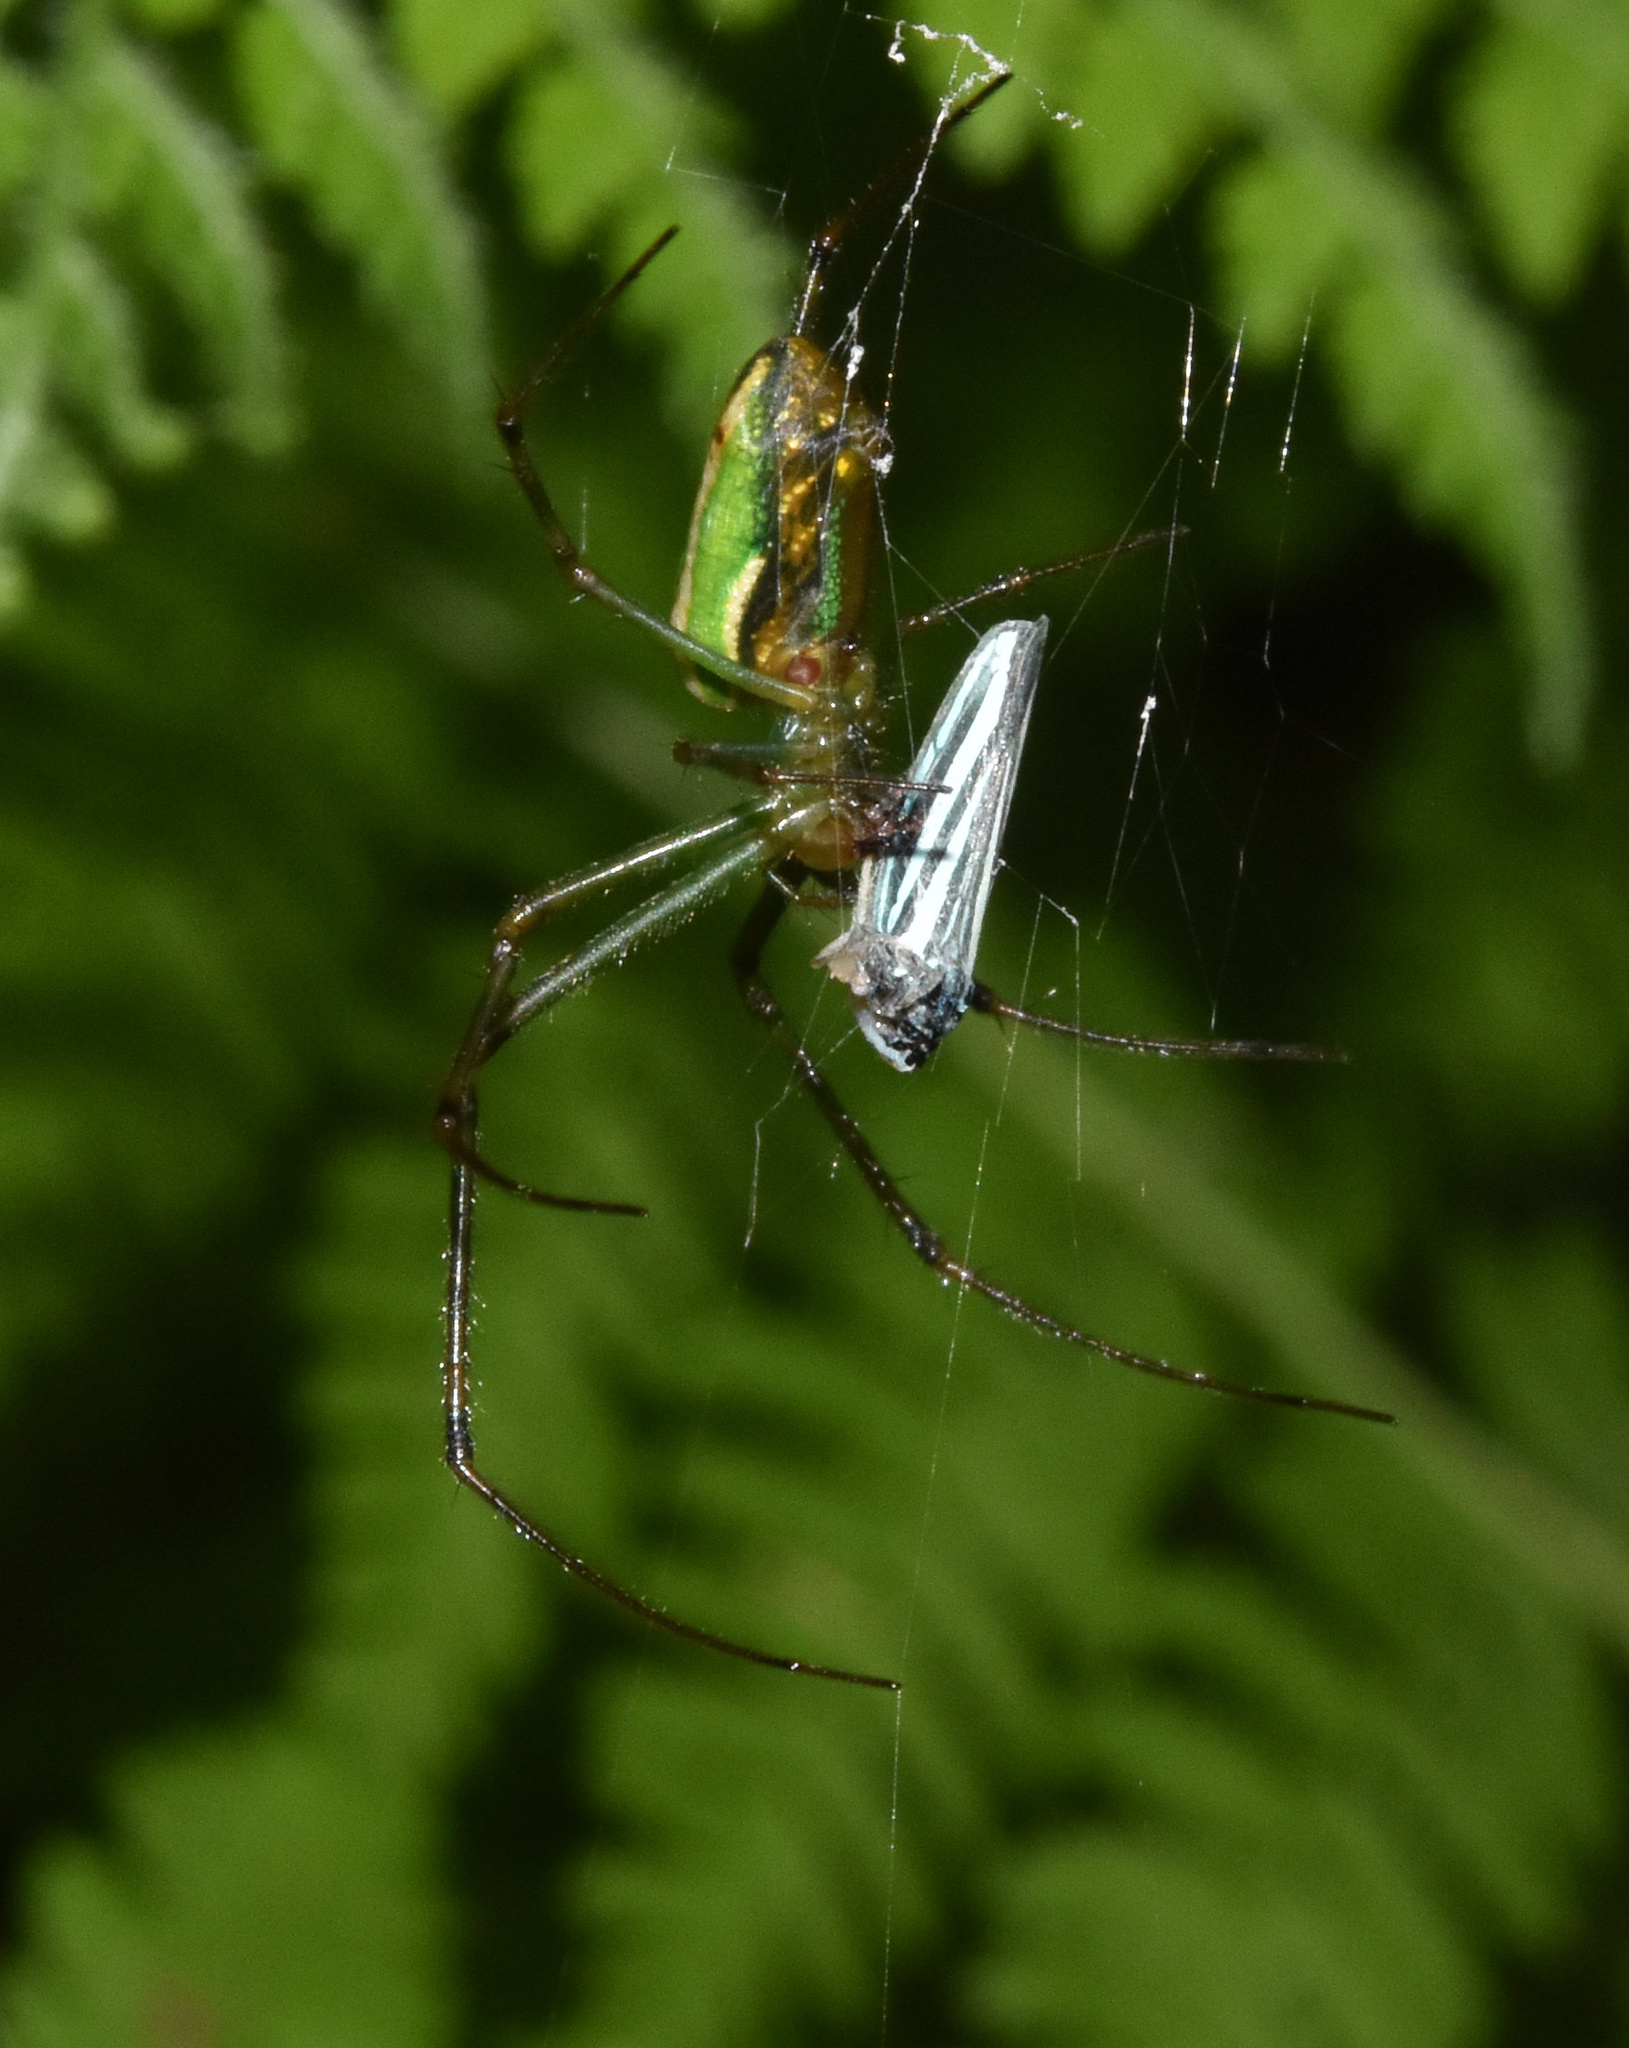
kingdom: Animalia
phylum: Arthropoda
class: Arachnida
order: Araneae
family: Tetragnathidae
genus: Leucauge
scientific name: Leucauge auronotum
